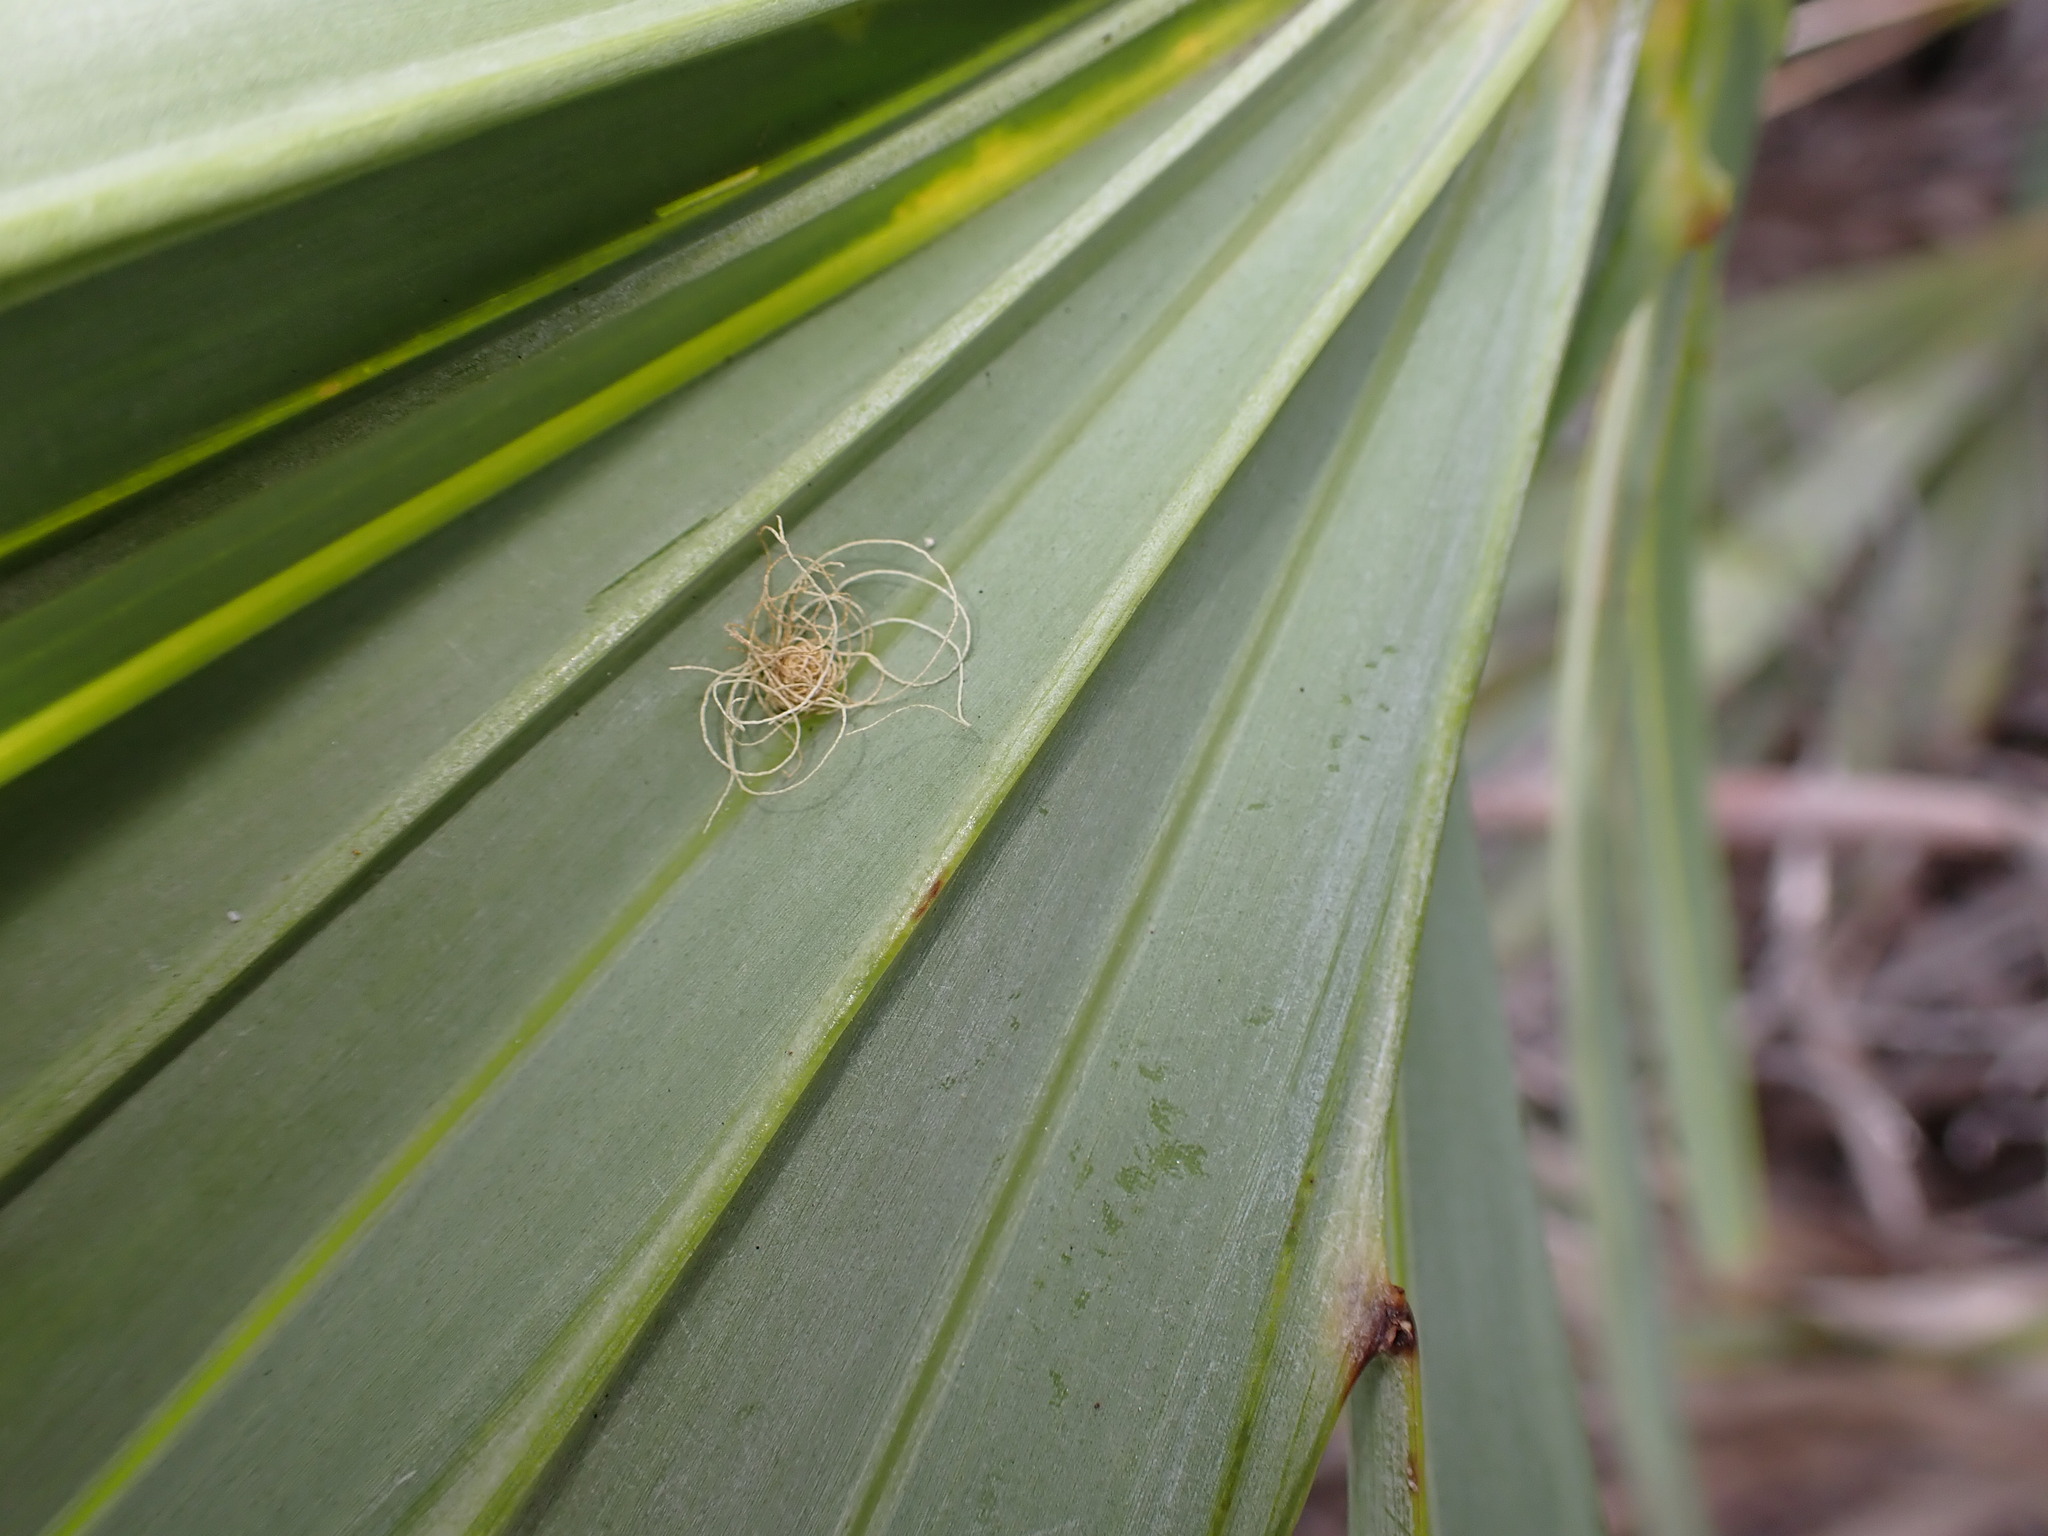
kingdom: Animalia
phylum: Arthropoda
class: Insecta
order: Coleoptera
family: Chrysomelidae
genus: Hemisphaerota
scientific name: Hemisphaerota cyanea
